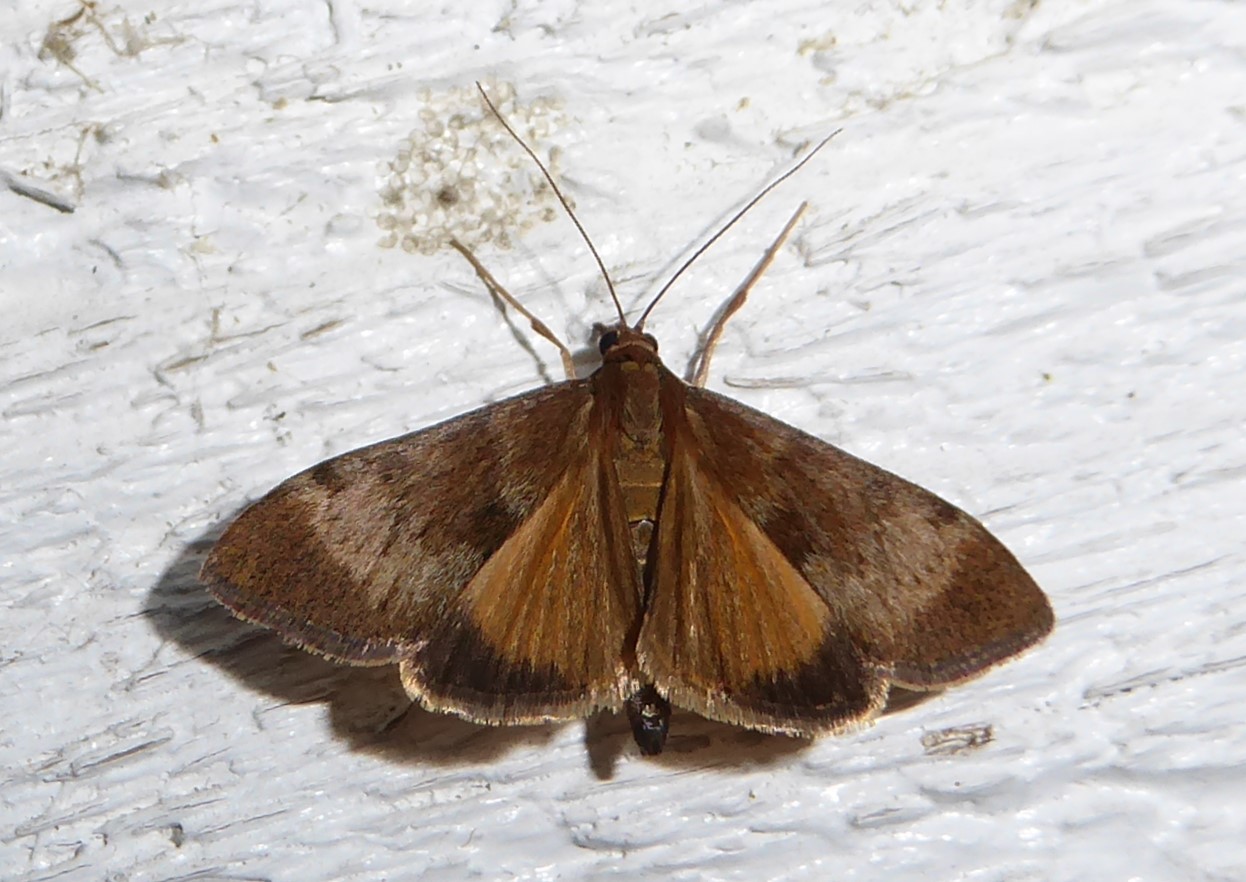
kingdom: Animalia
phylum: Arthropoda
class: Insecta
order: Lepidoptera
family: Crambidae
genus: Uresiphita
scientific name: Uresiphita
